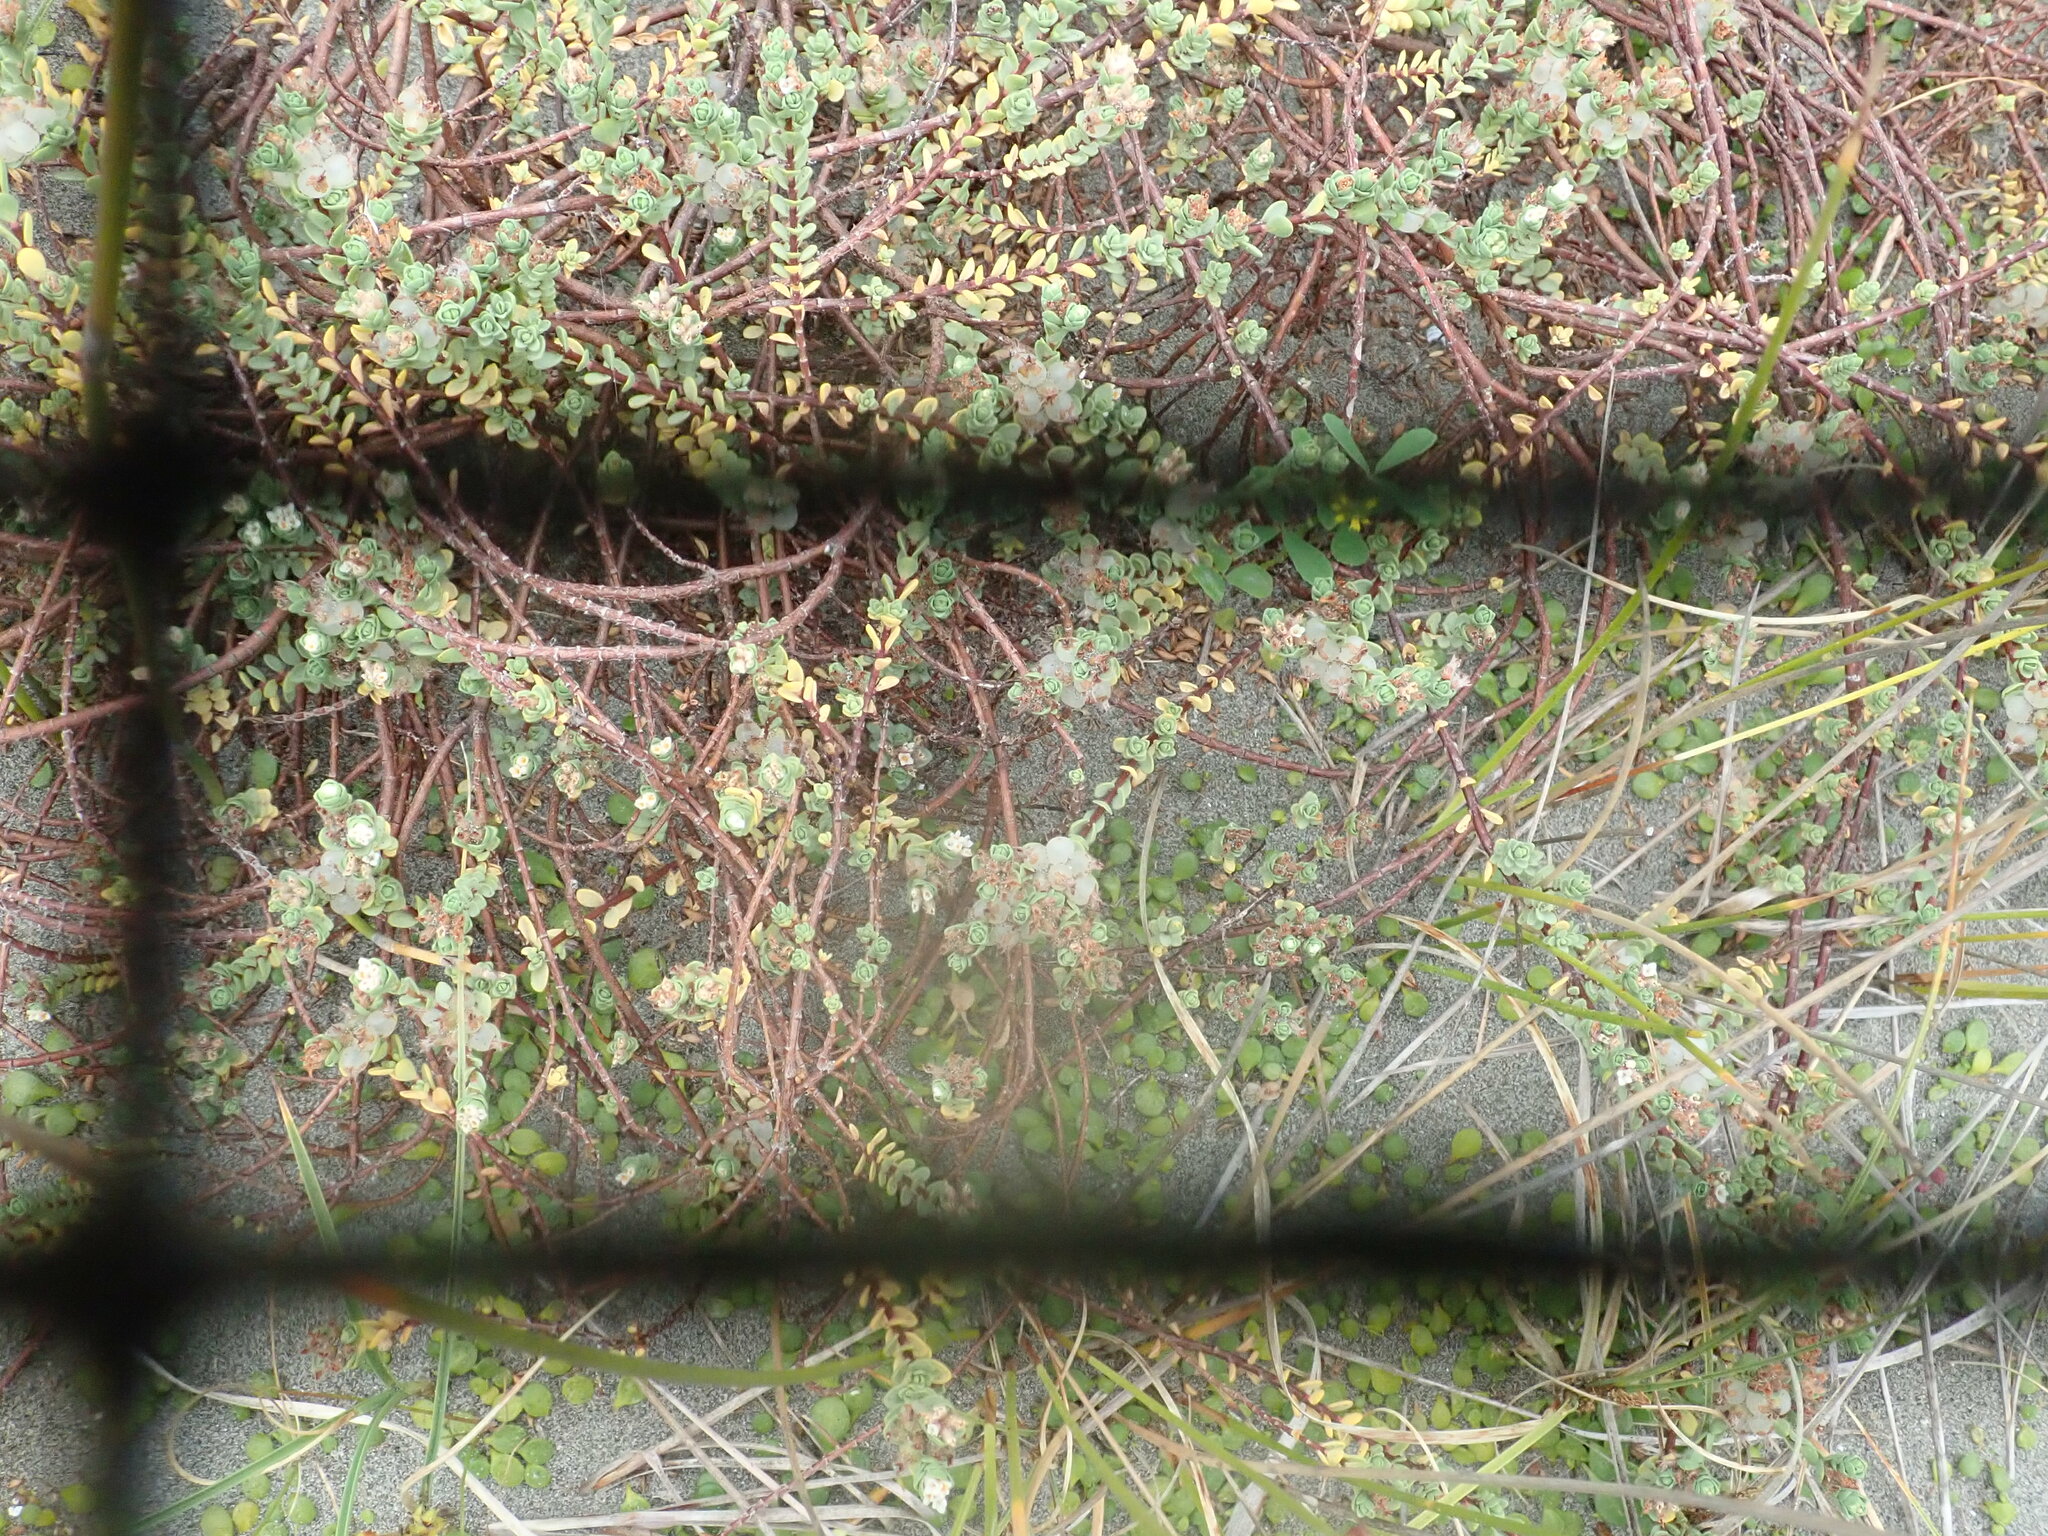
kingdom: Plantae
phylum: Tracheophyta
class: Magnoliopsida
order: Malvales
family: Thymelaeaceae
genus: Pimelea
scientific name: Pimelea actea
